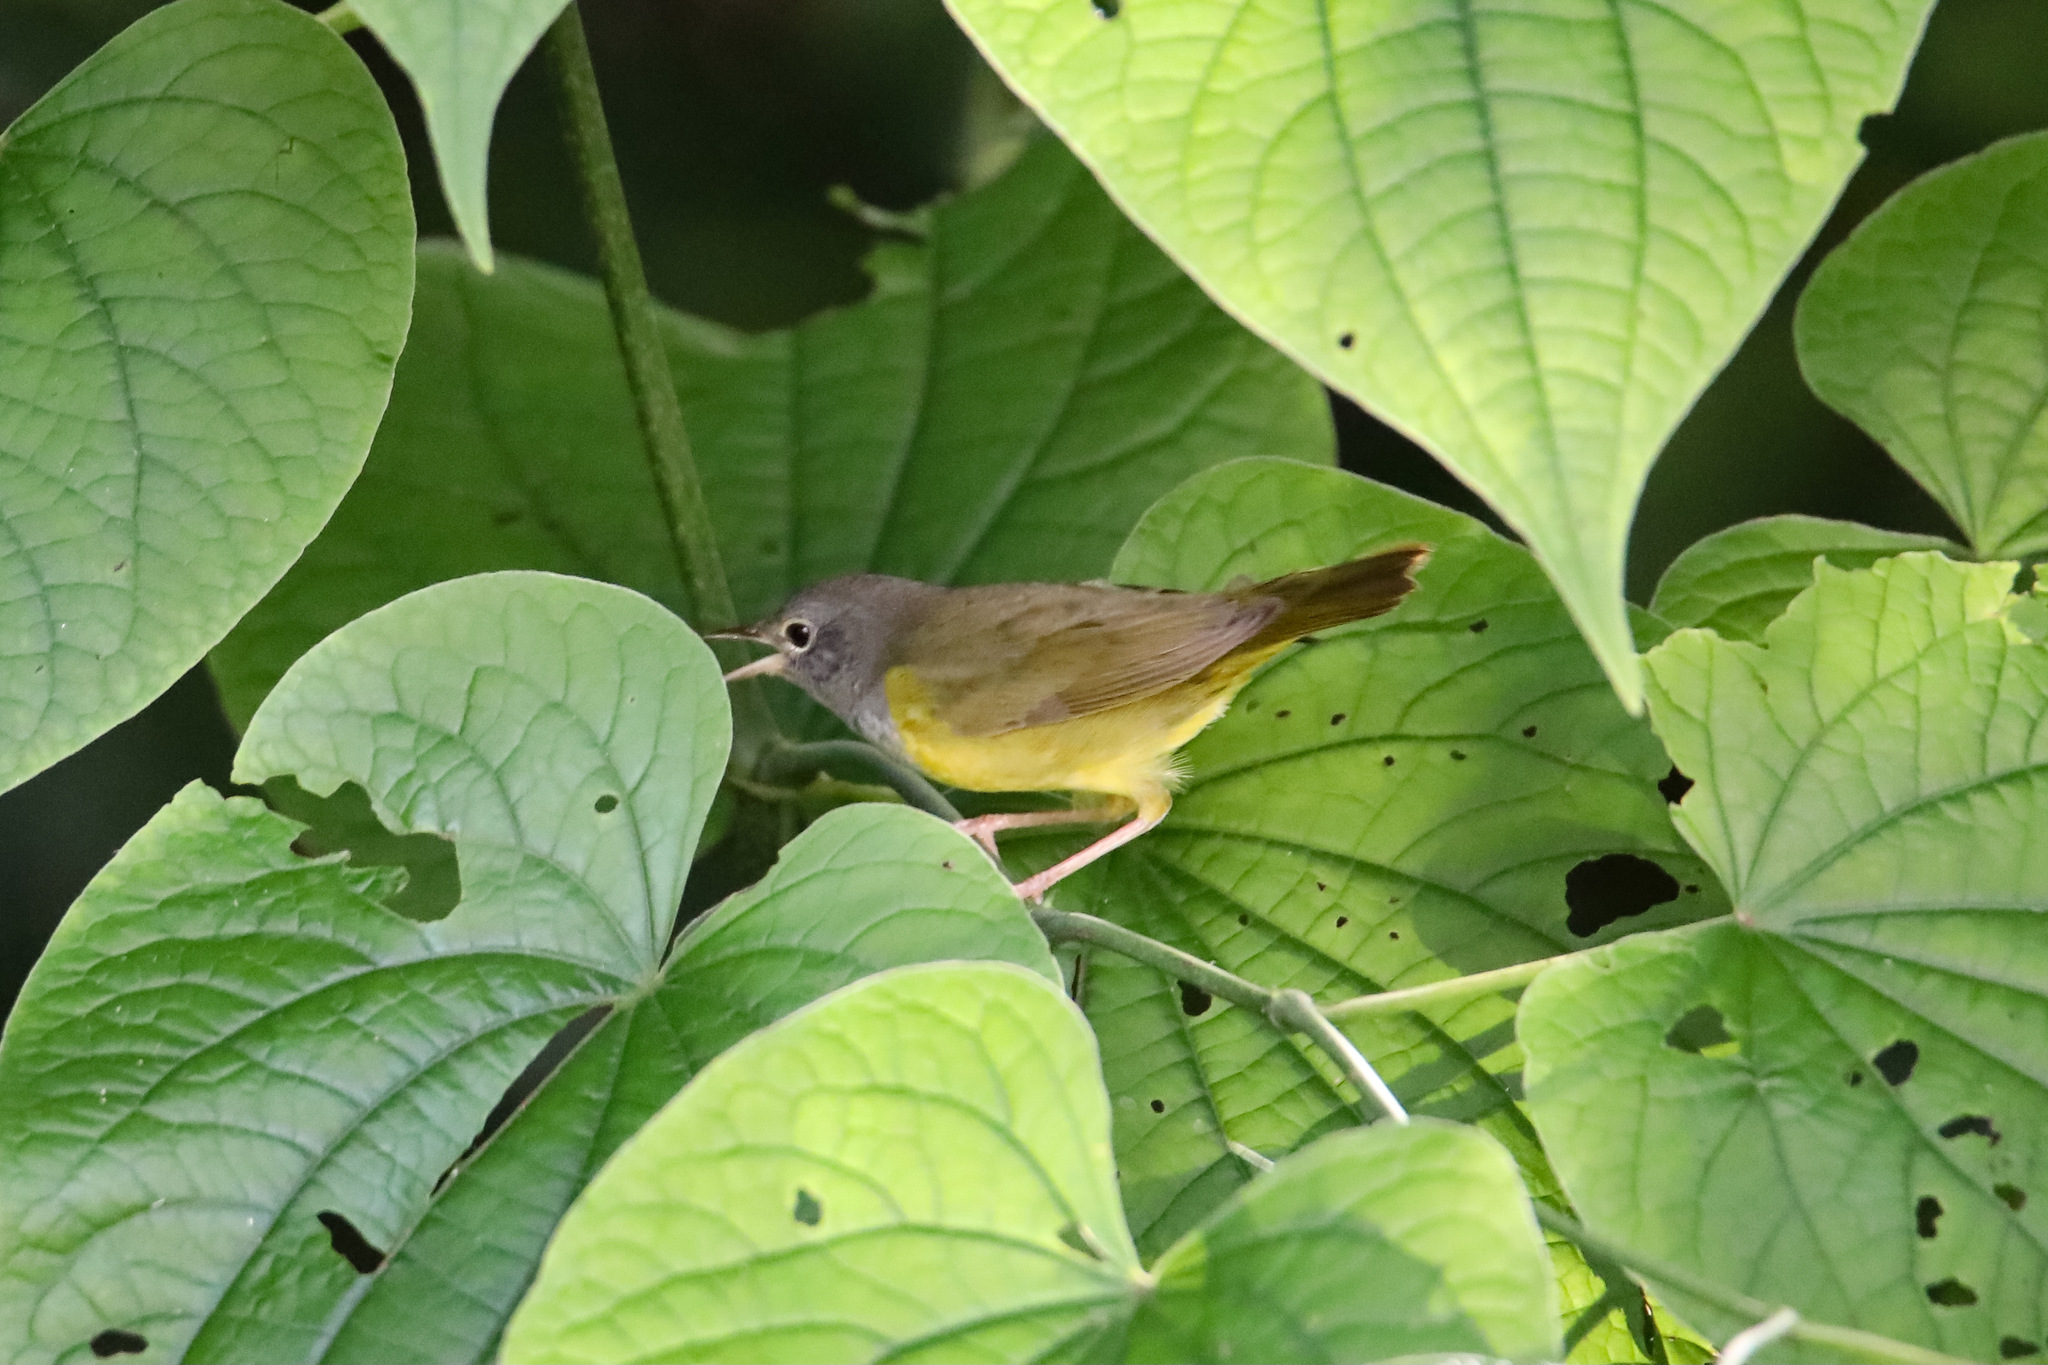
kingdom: Animalia
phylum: Chordata
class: Aves
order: Passeriformes
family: Parulidae
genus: Geothlypis
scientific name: Geothlypis philadelphia
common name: Mourning warbler
